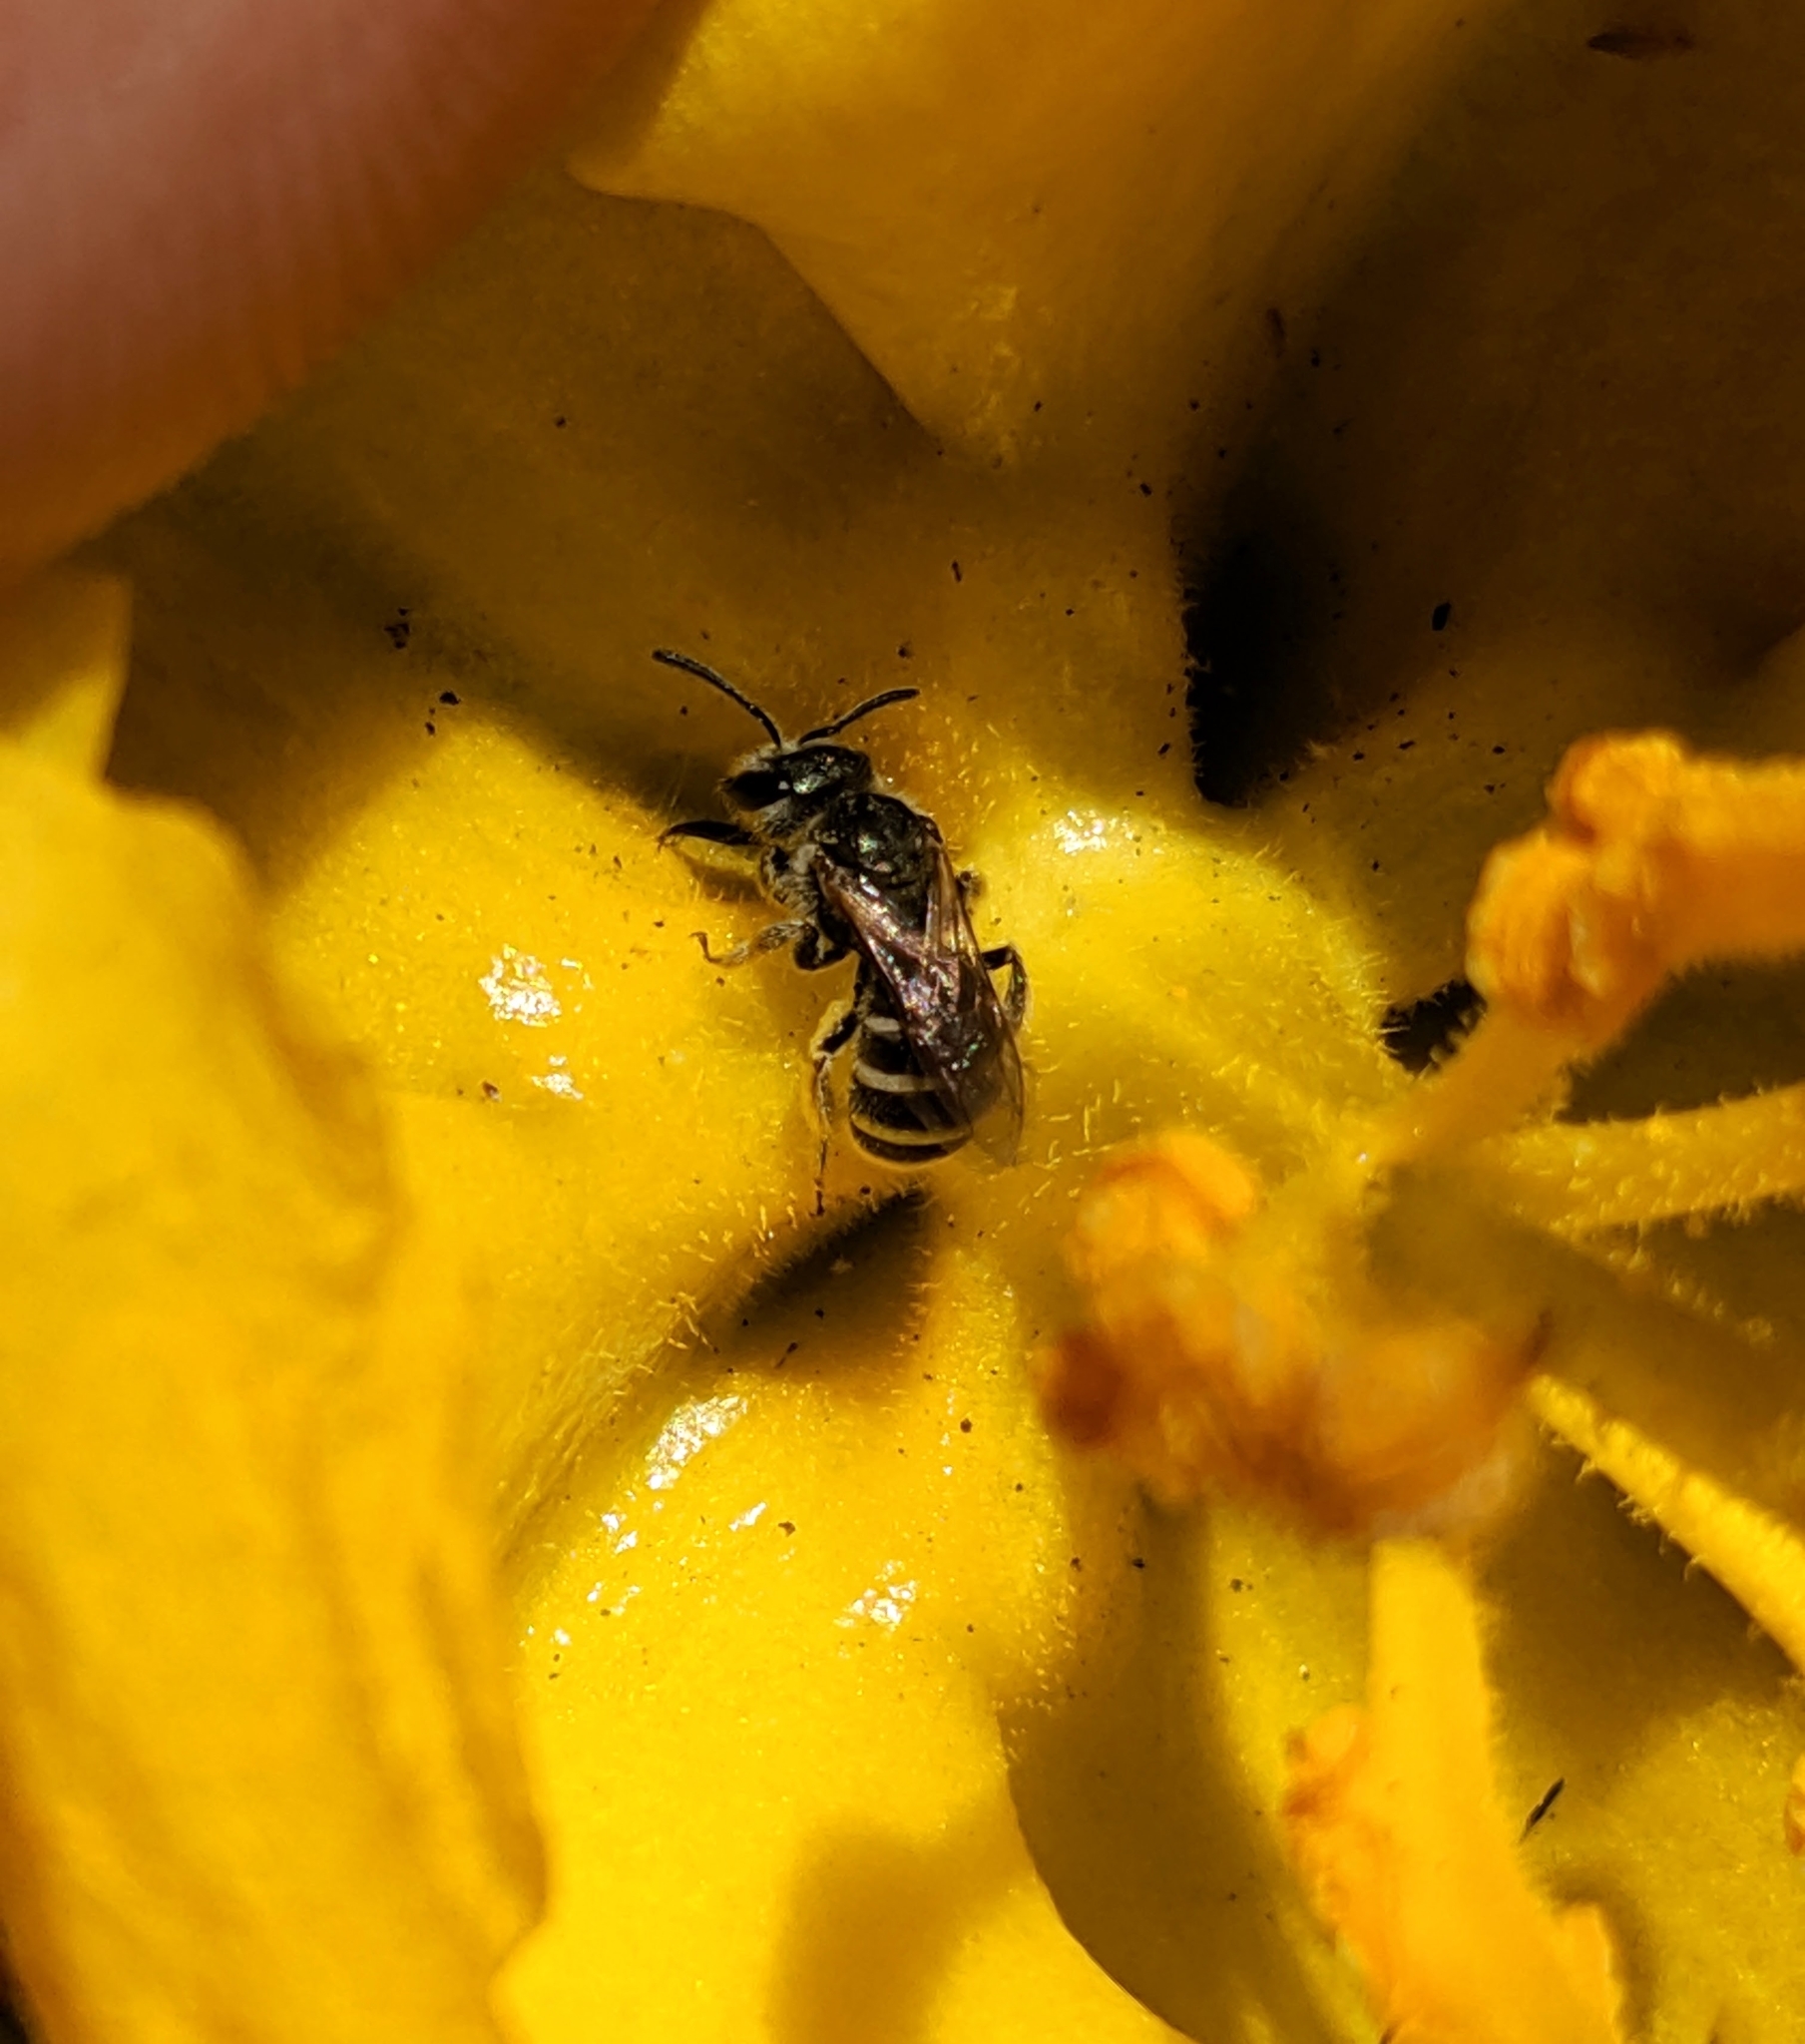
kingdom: Animalia
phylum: Arthropoda
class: Insecta
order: Hymenoptera
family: Halictidae
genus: Halictus
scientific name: Halictus tripartitus
